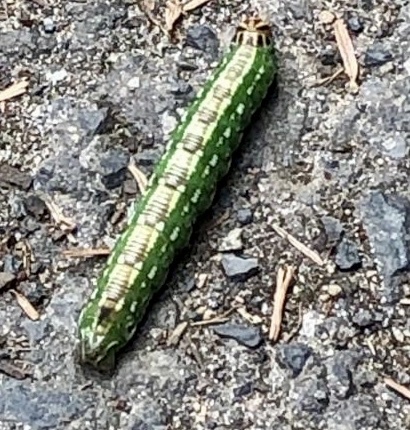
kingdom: Animalia
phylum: Arthropoda
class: Insecta
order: Lepidoptera
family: Sphingidae
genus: Sphinx
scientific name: Sphinx pinastri
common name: Pine hawk-moth
